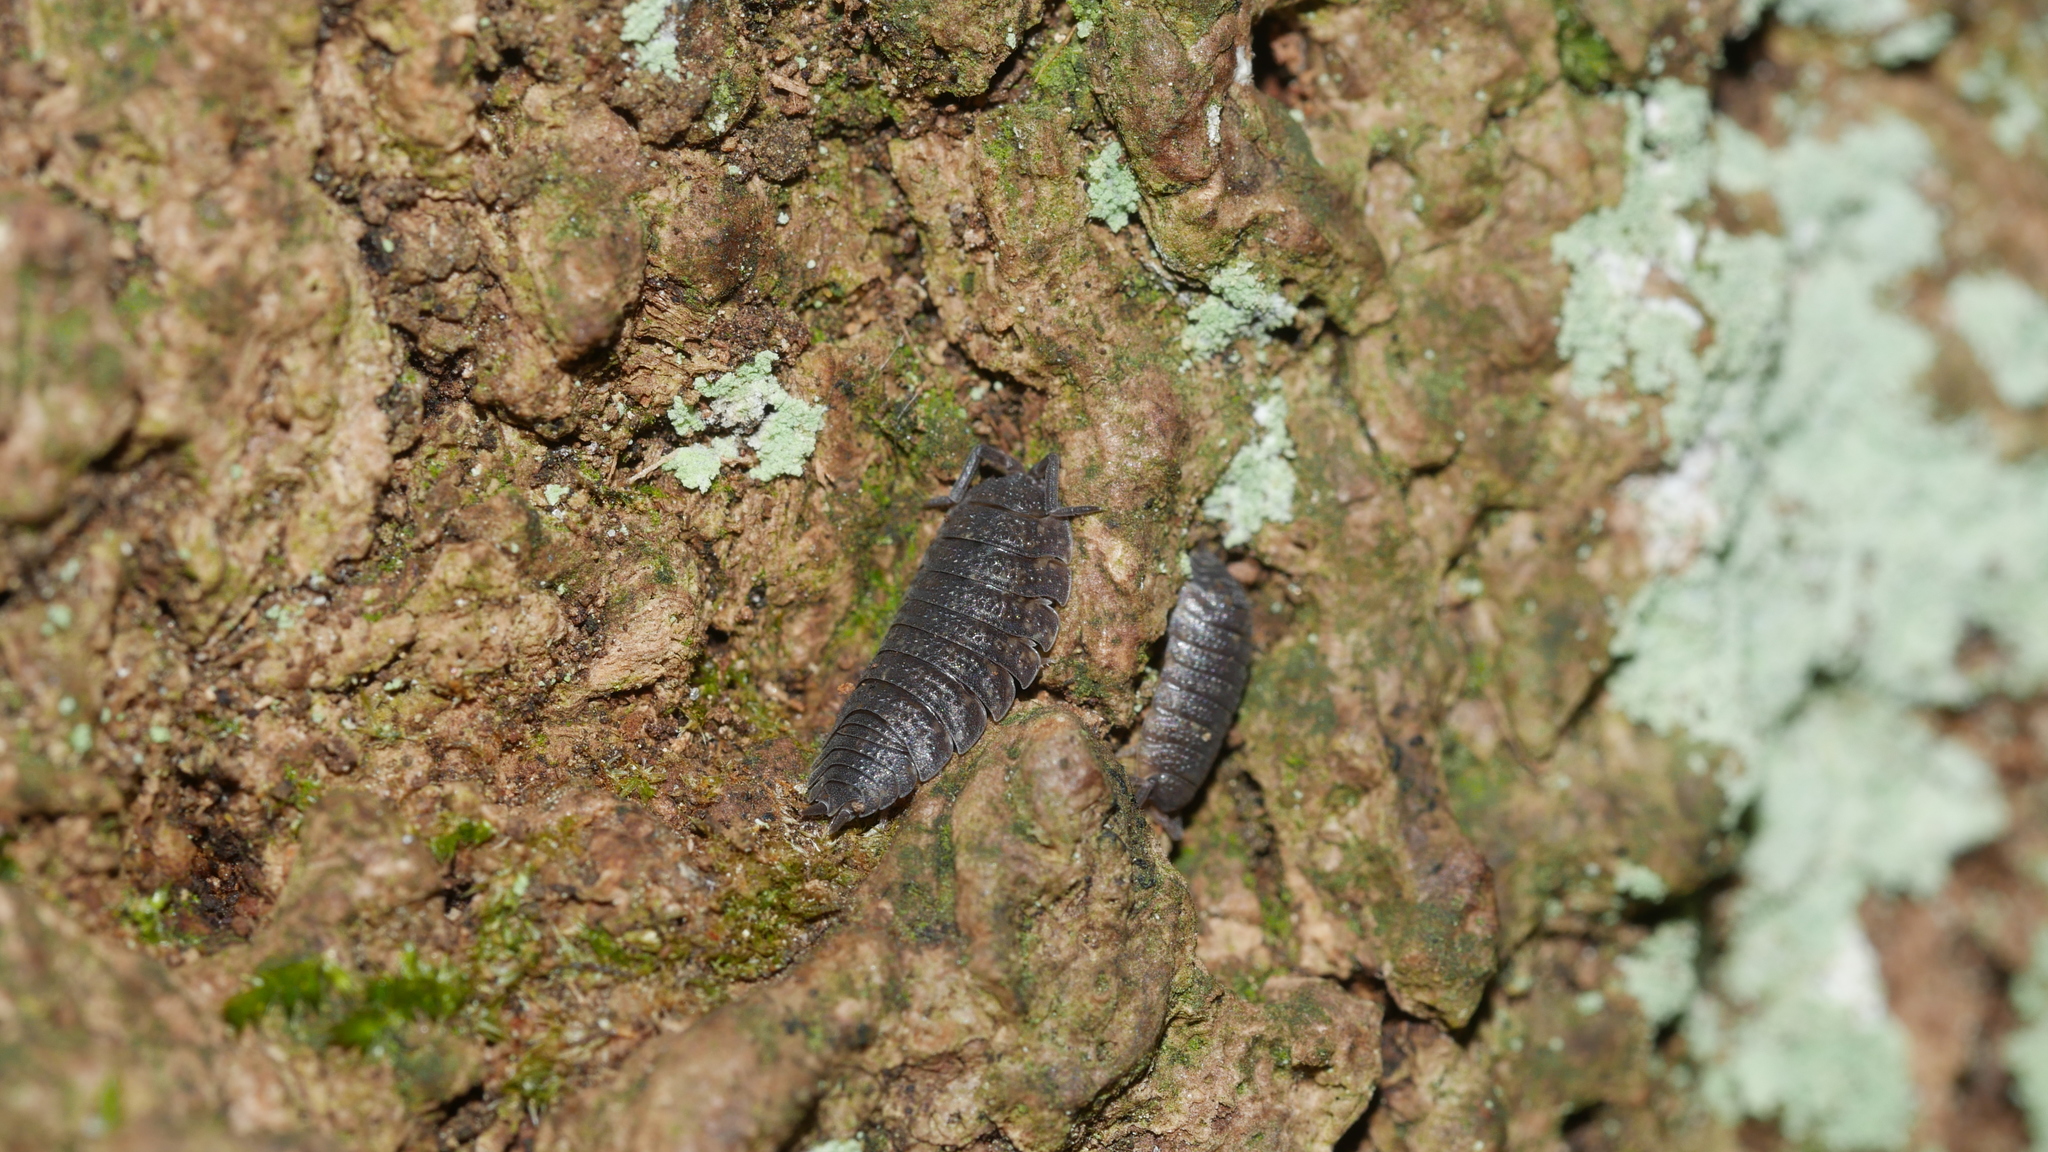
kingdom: Animalia
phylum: Arthropoda
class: Malacostraca
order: Isopoda
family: Porcellionidae
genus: Porcellio
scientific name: Porcellio scaber
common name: Common rough woodlouse
